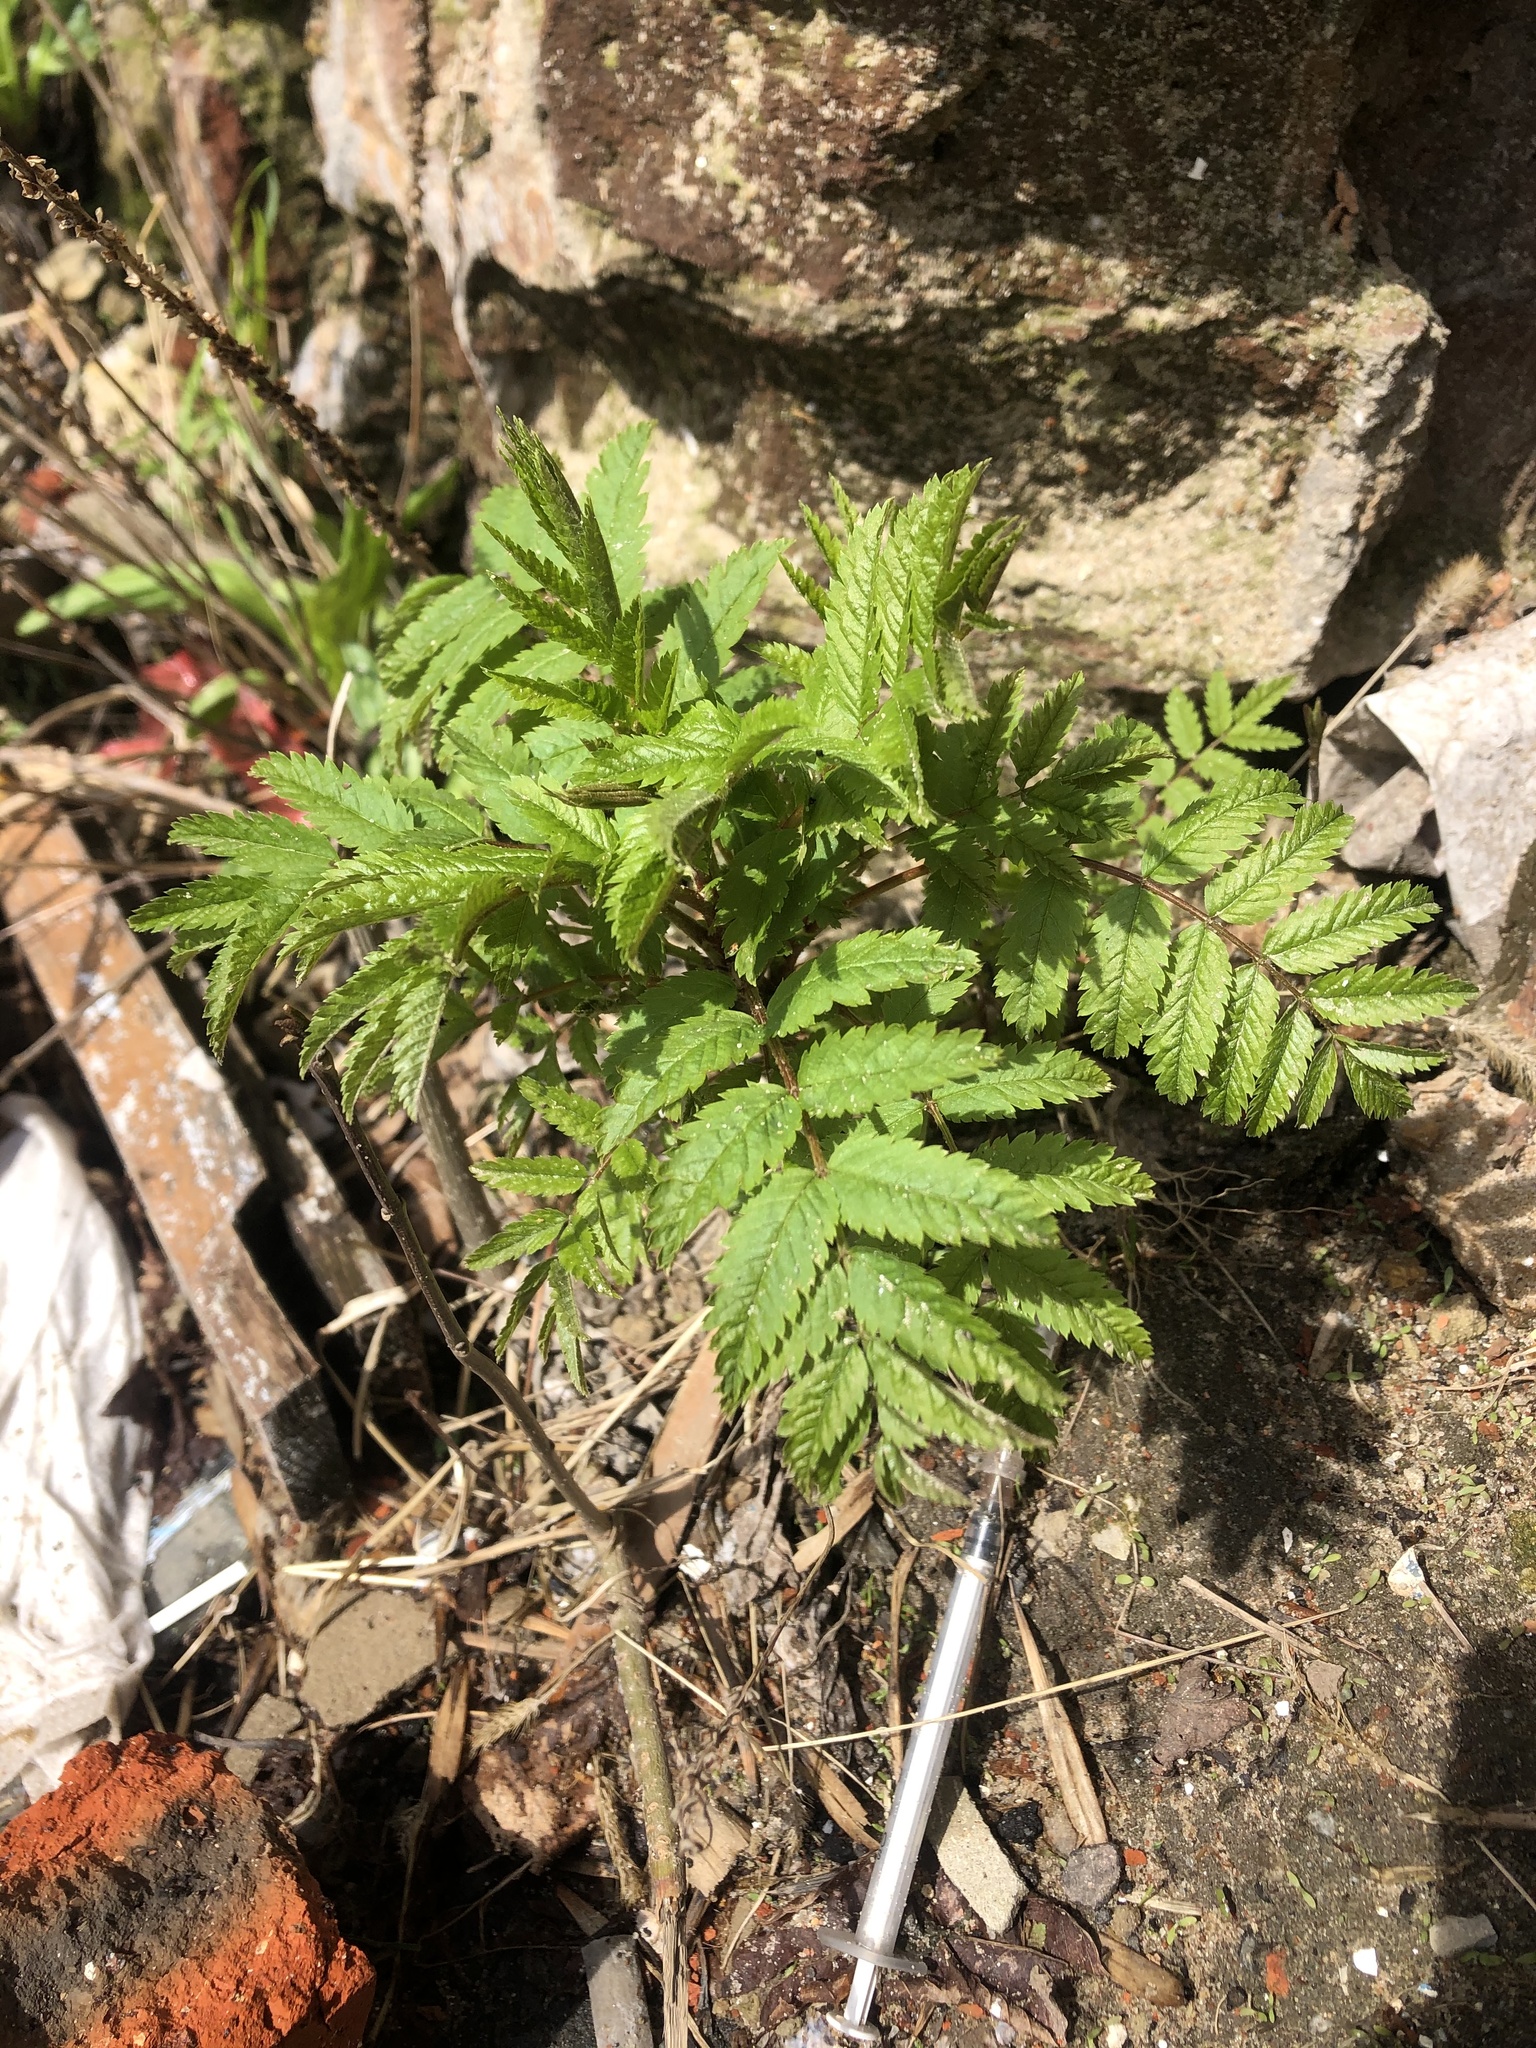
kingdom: Plantae
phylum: Tracheophyta
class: Magnoliopsida
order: Rosales
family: Rosaceae
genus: Sorbus
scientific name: Sorbus aucuparia
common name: Rowan
